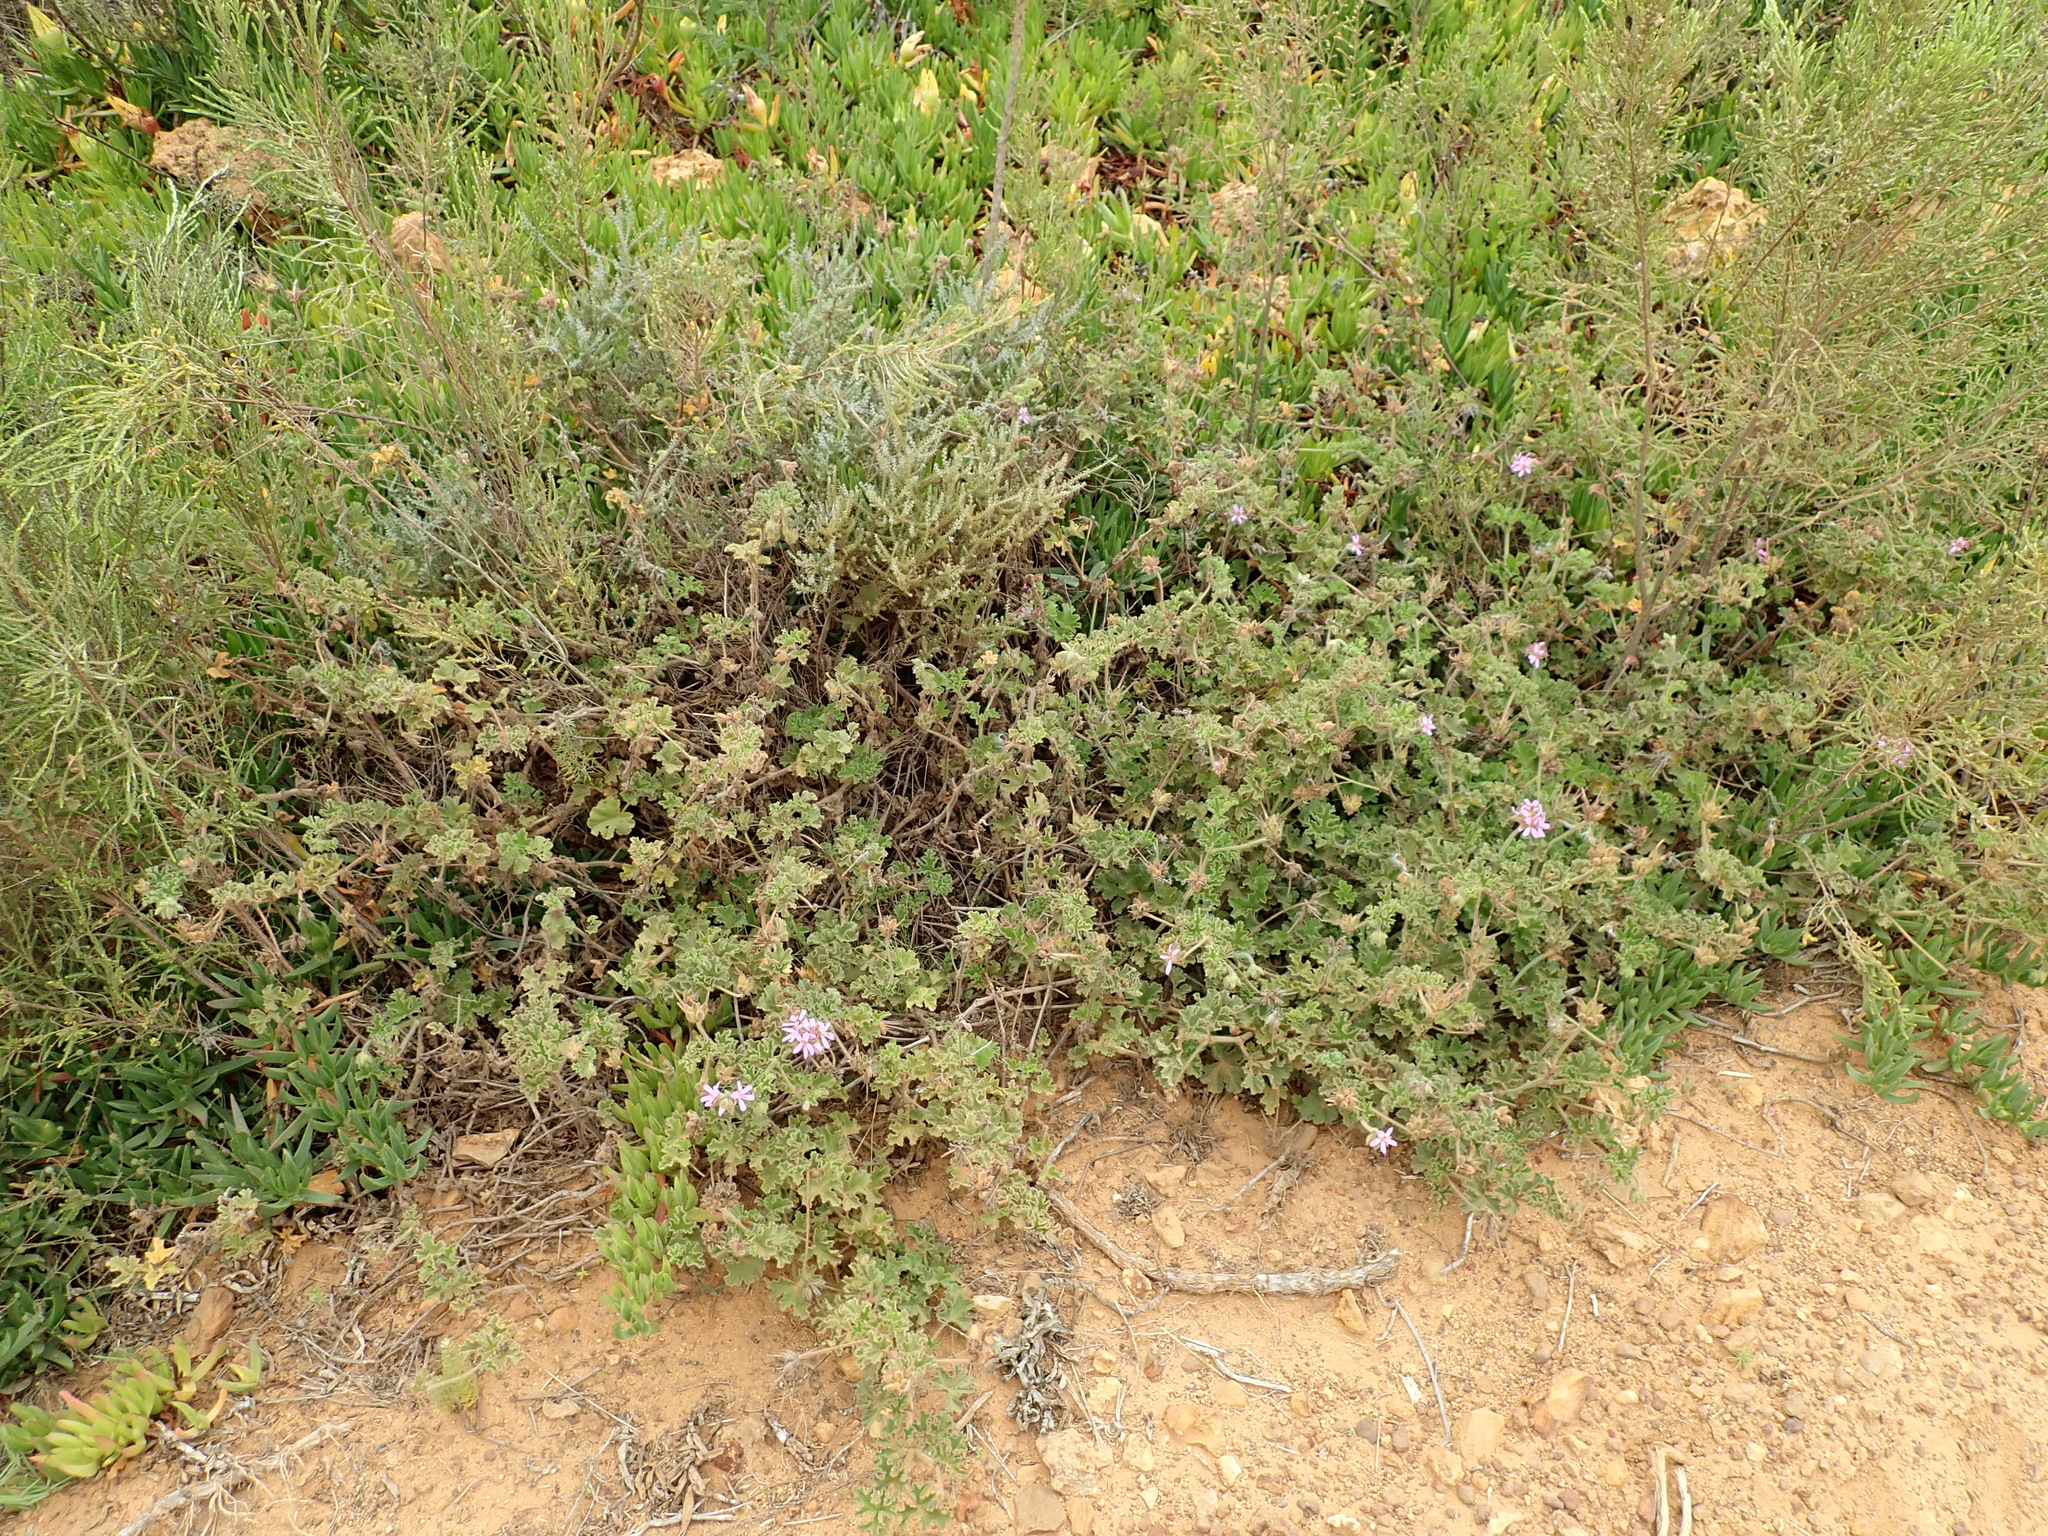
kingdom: Plantae
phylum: Tracheophyta
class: Magnoliopsida
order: Geraniales
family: Geraniaceae
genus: Pelargonium
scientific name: Pelargonium capitatum
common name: Rose scented geranium
